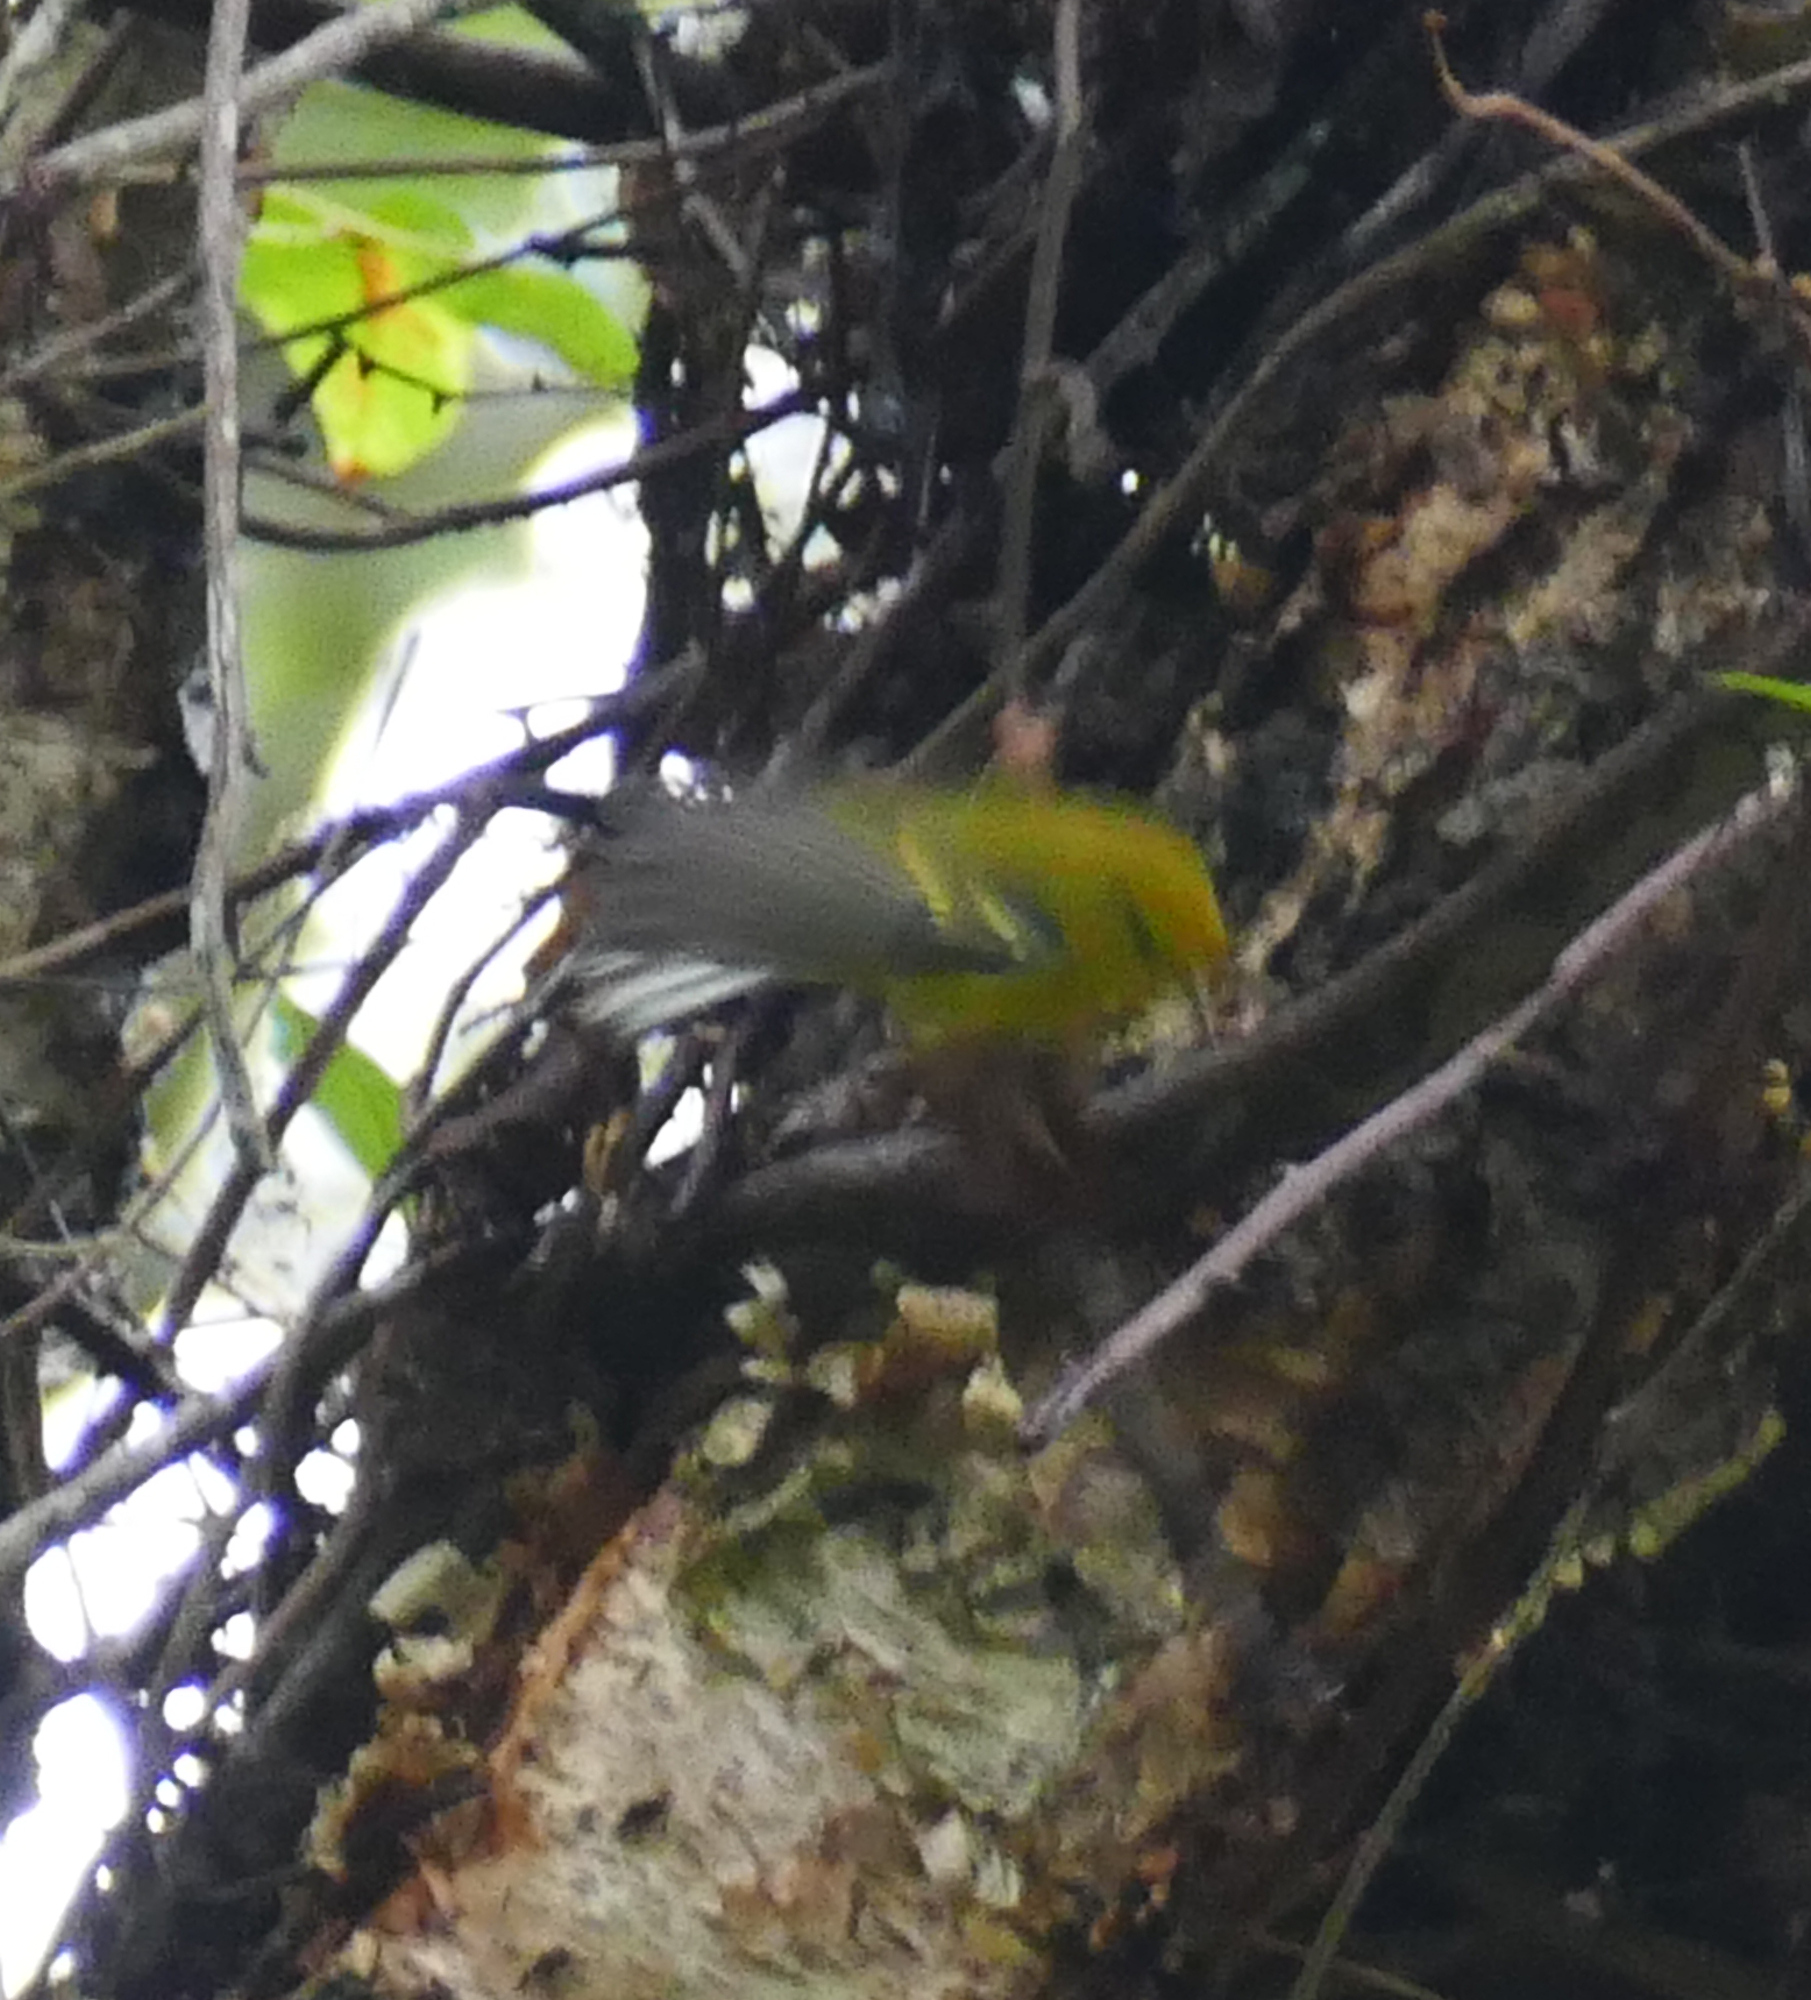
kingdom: Animalia
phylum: Chordata
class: Aves
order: Passeriformes
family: Parulidae
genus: Vermivora
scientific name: Vermivora cyanoptera
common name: Blue-winged warbler
